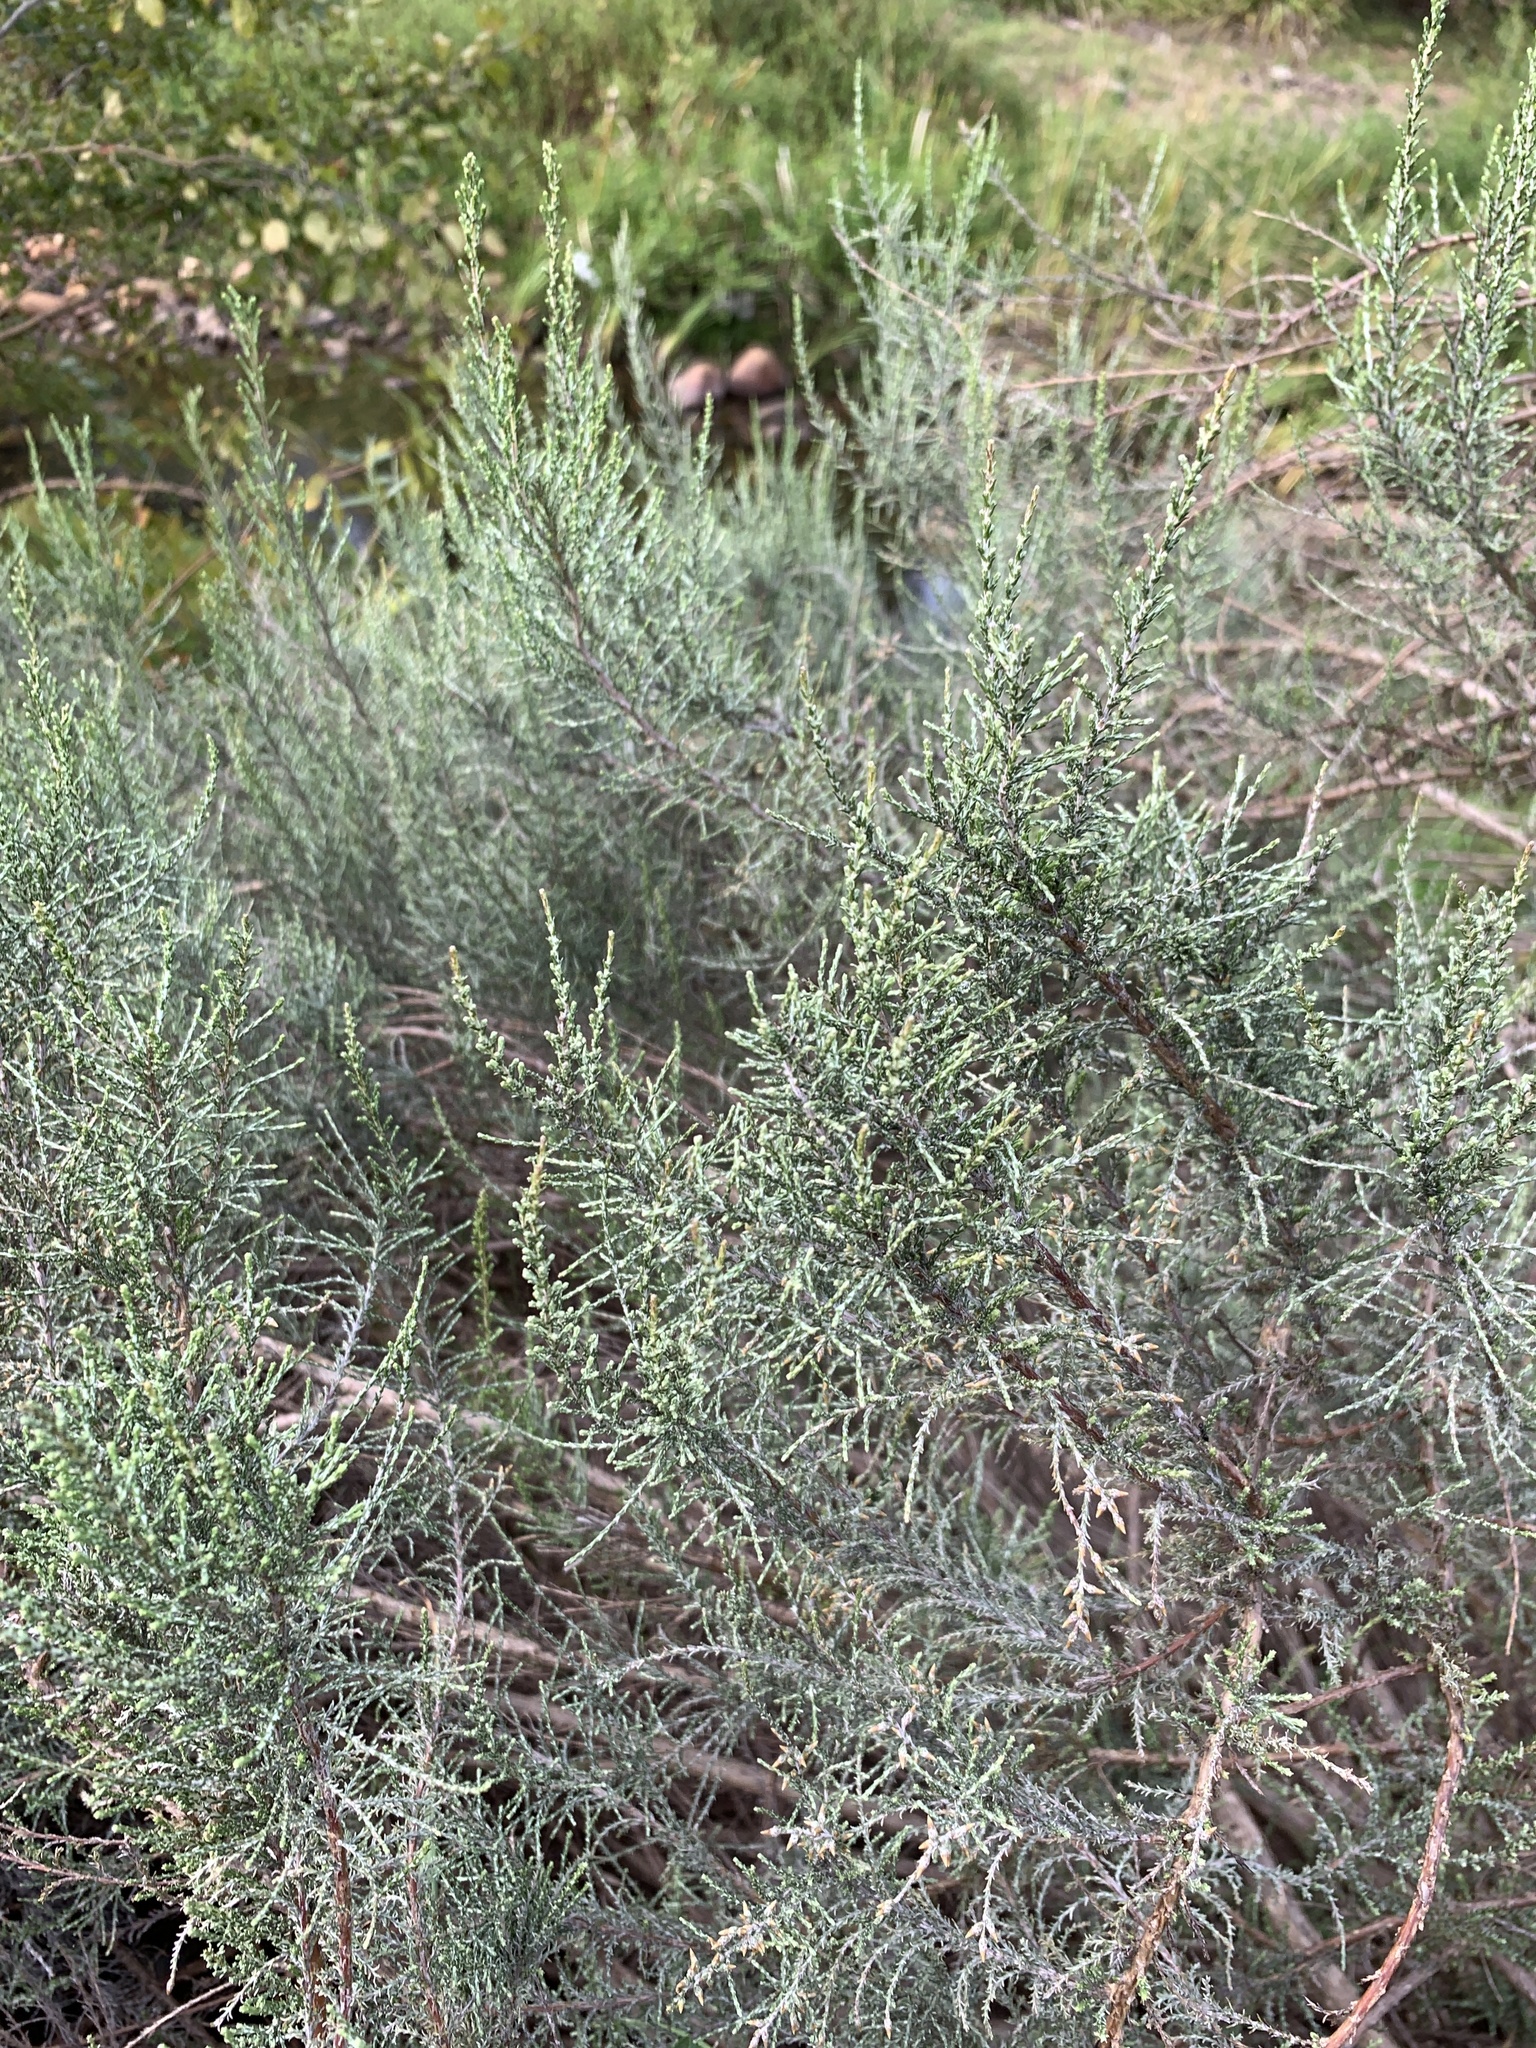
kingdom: Plantae
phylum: Tracheophyta
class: Magnoliopsida
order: Asterales
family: Asteraceae
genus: Dicerothamnus
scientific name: Dicerothamnus rhinocerotis
